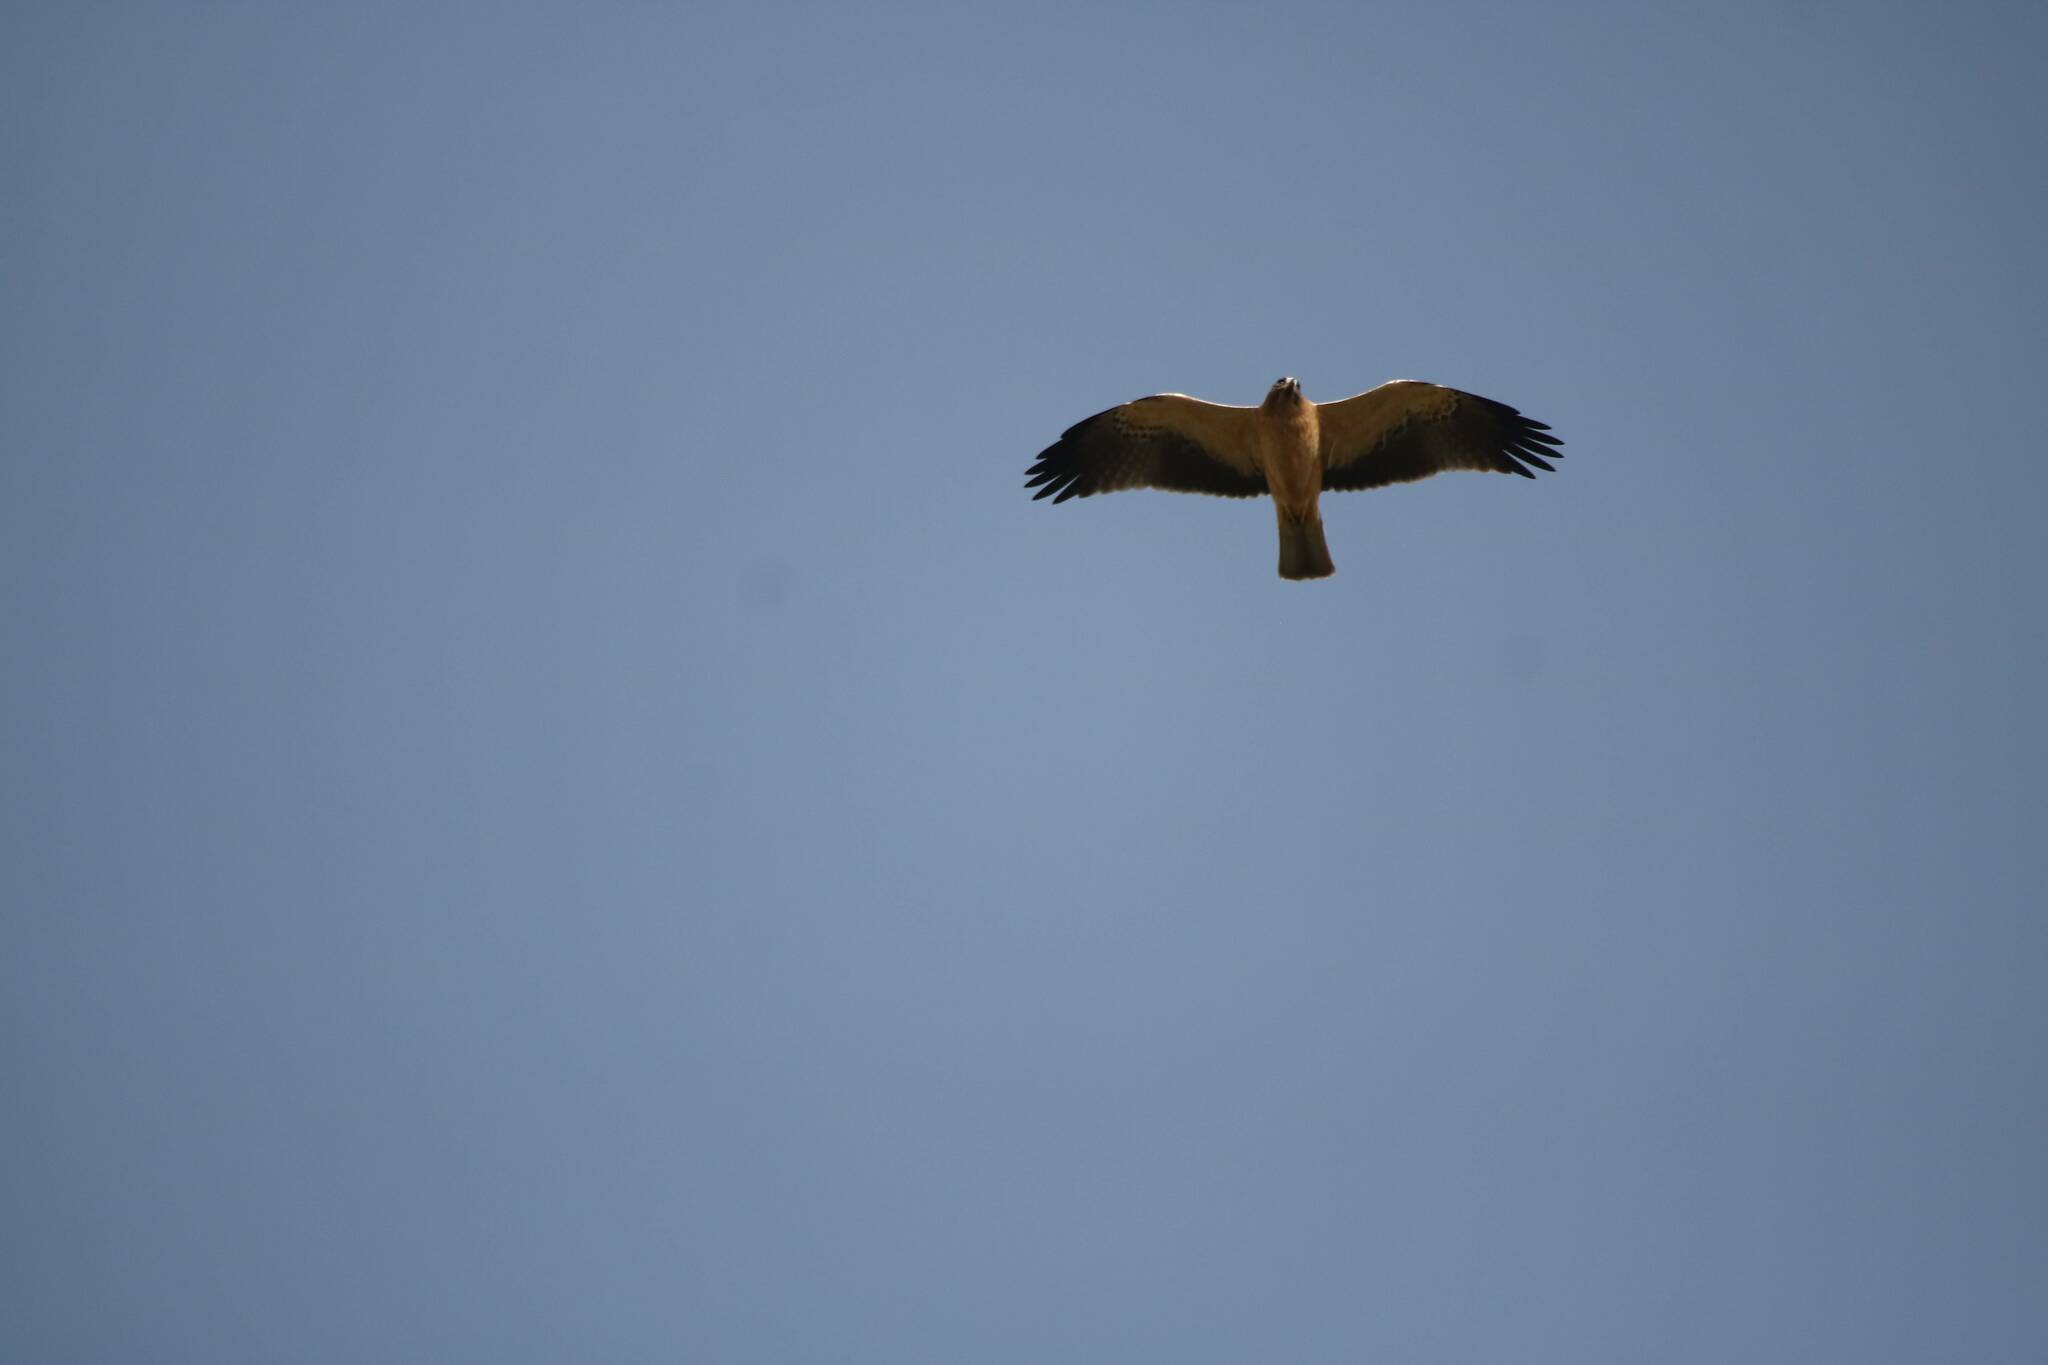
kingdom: Animalia
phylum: Chordata
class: Aves
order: Accipitriformes
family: Accipitridae
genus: Hieraaetus
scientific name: Hieraaetus pennatus
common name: Booted eagle
